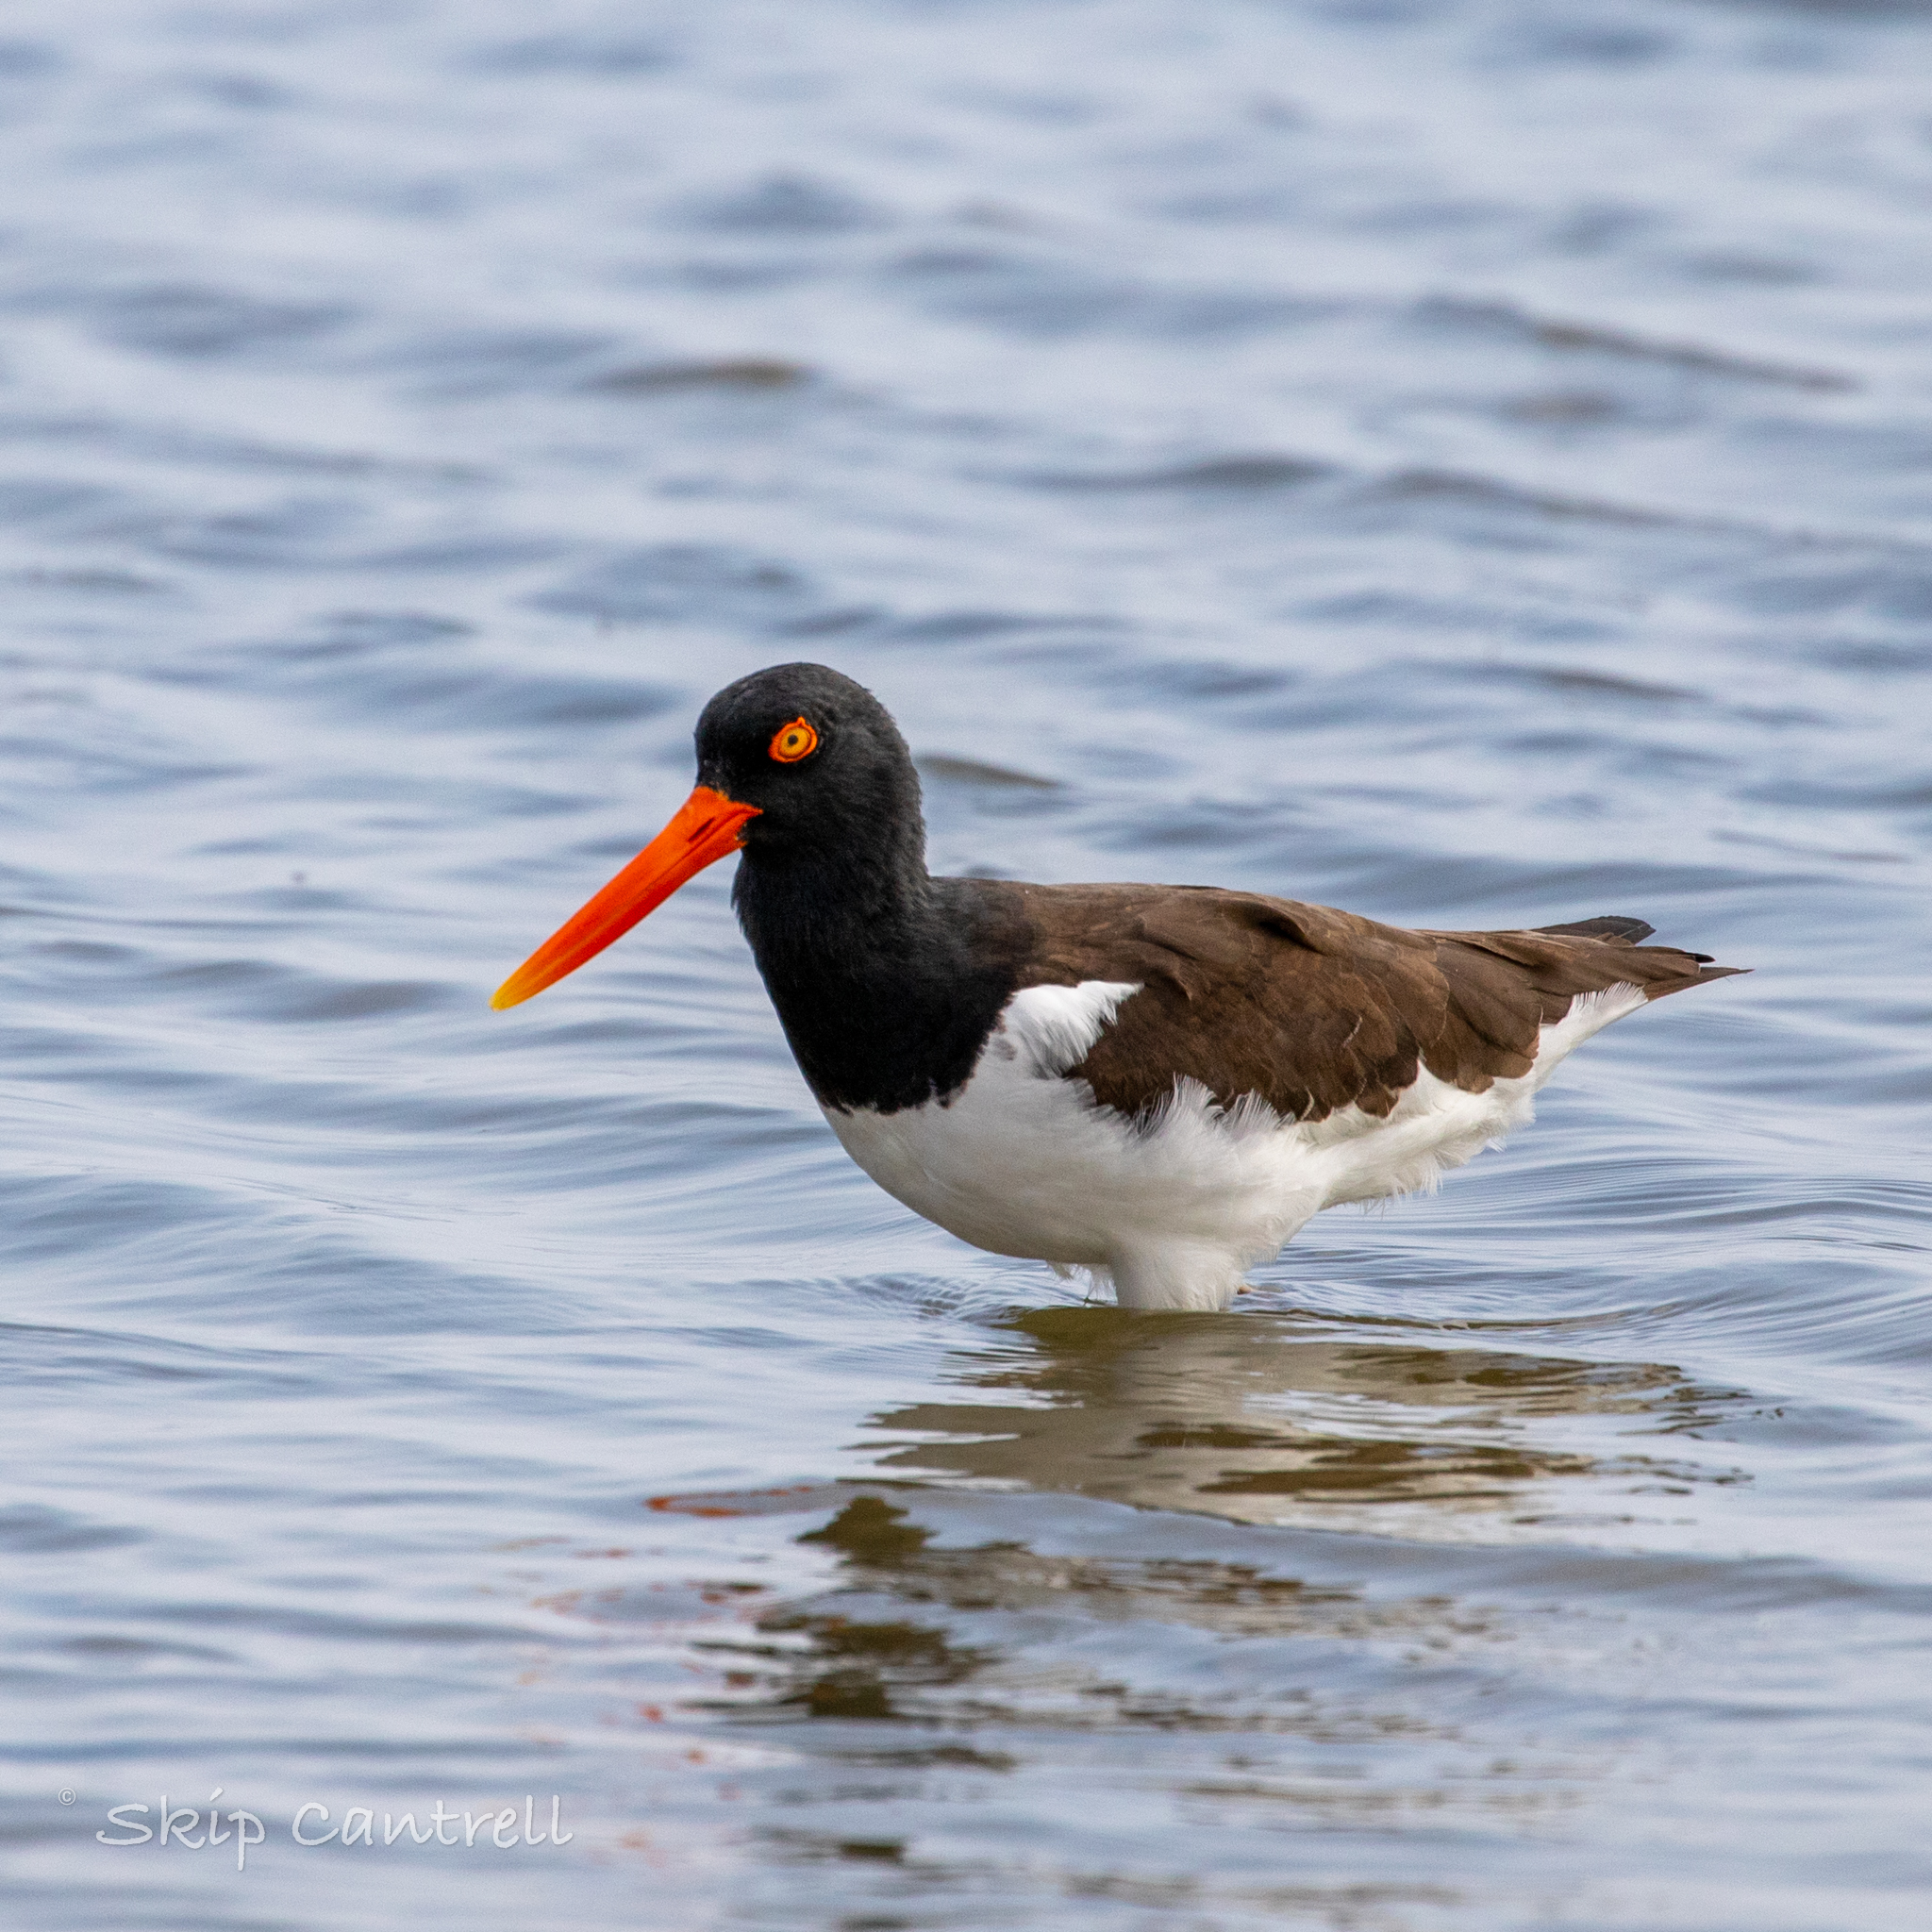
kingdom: Animalia
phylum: Chordata
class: Aves
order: Charadriiformes
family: Haematopodidae
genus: Haematopus
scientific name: Haematopus palliatus
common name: American oystercatcher
